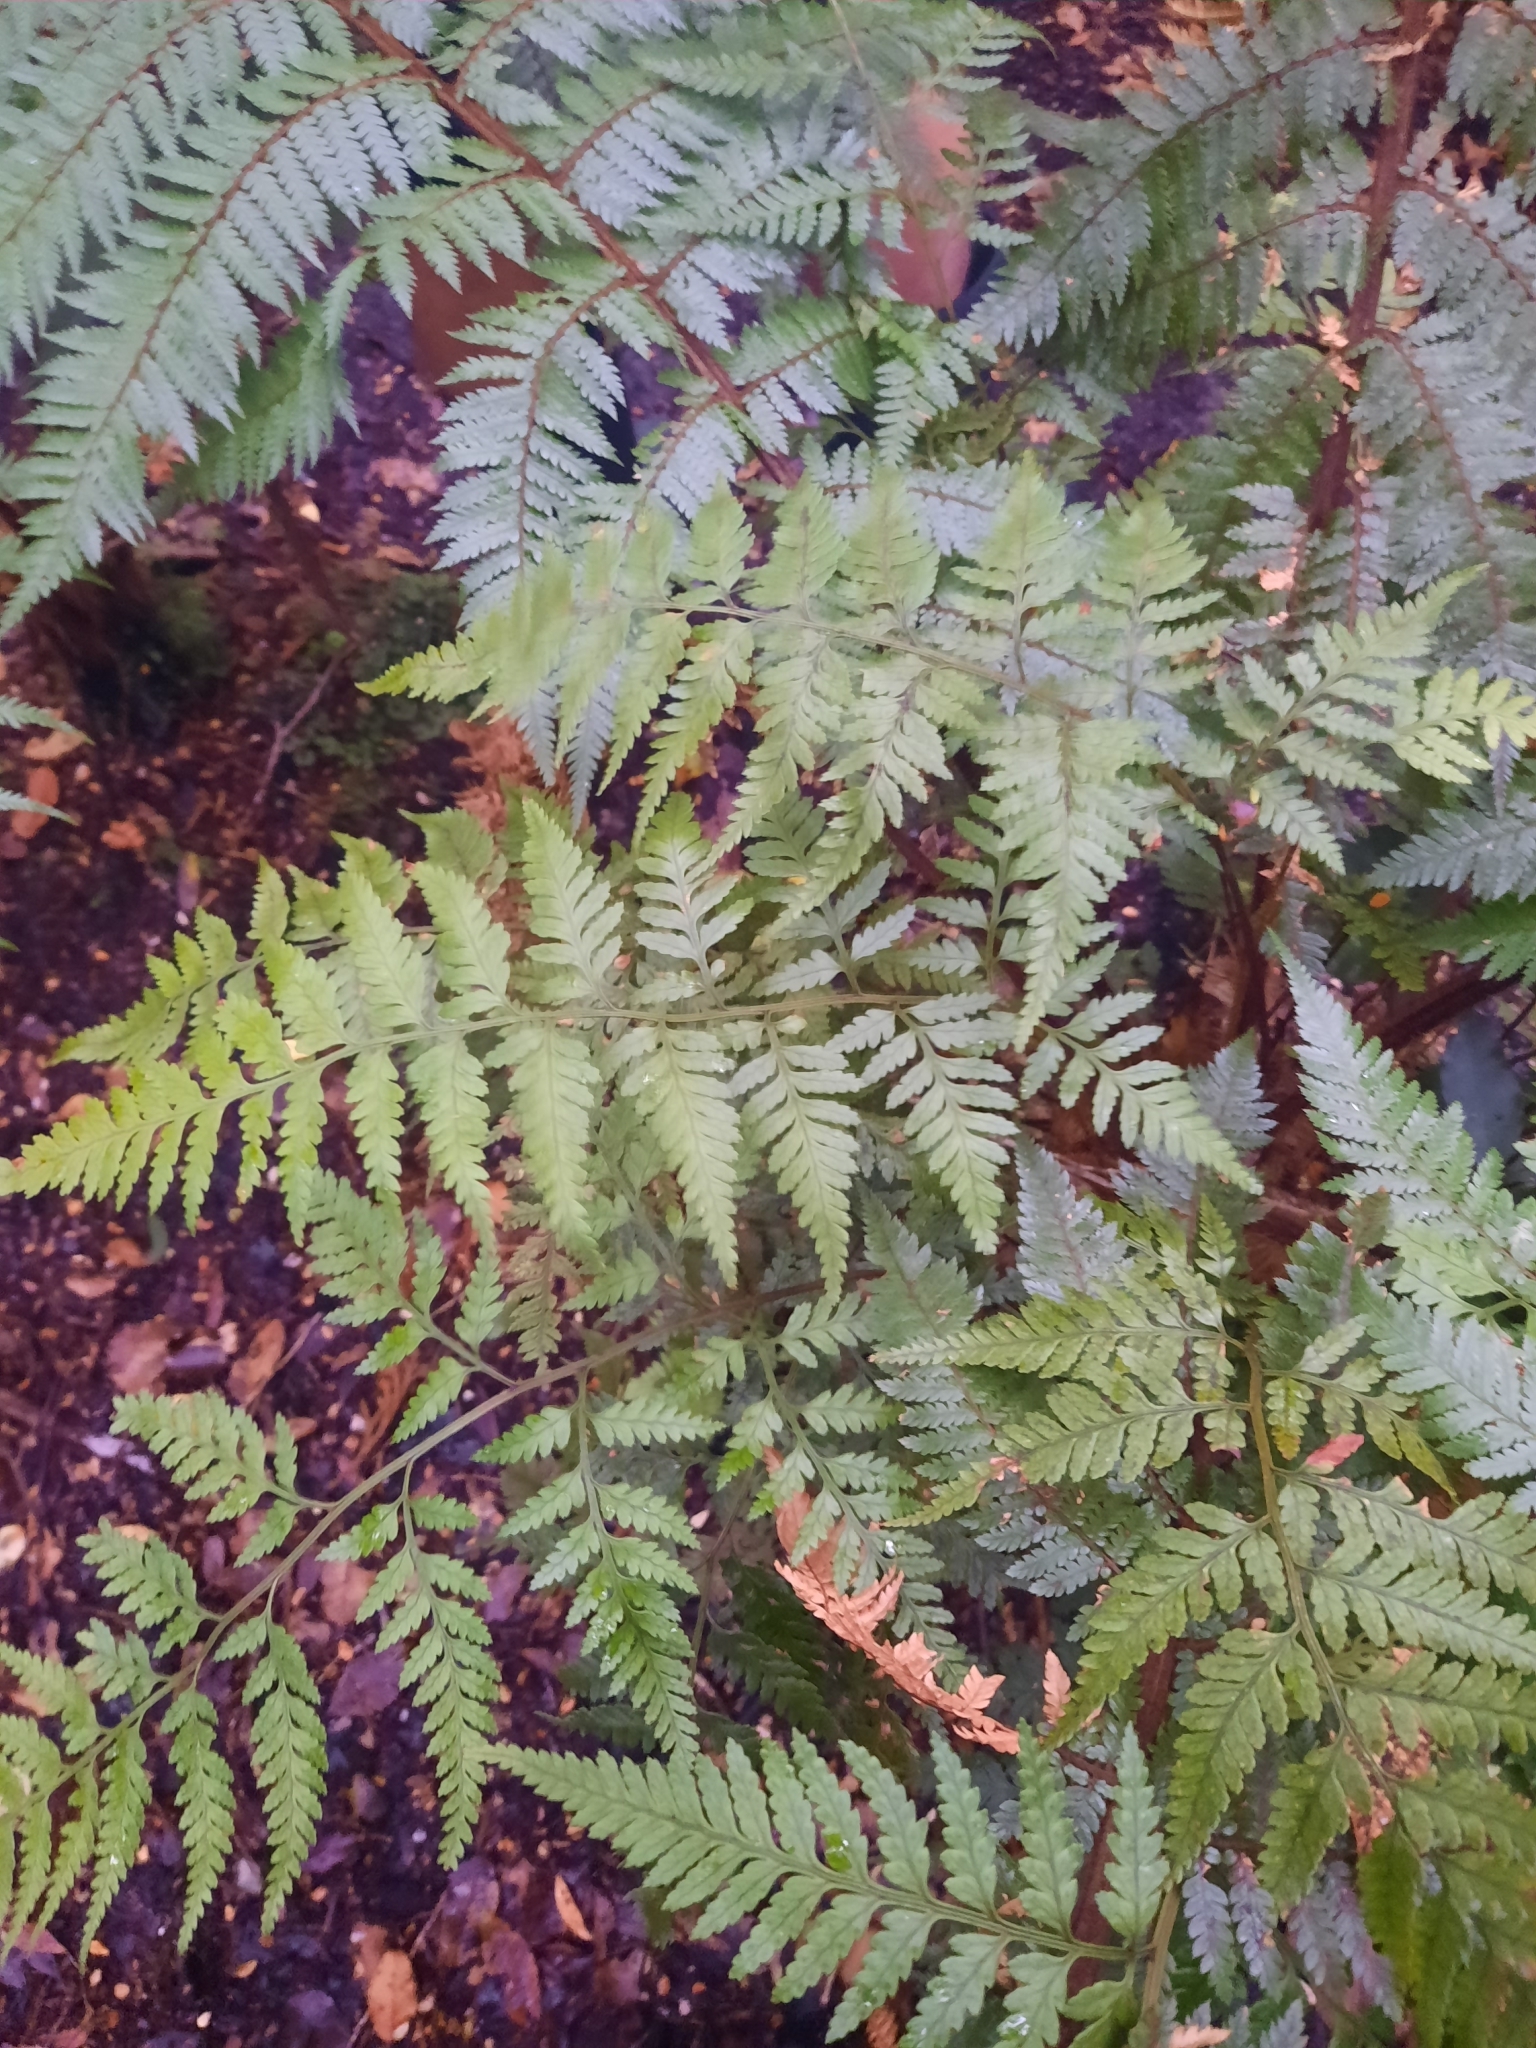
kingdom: Plantae
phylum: Tracheophyta
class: Polypodiopsida
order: Polypodiales
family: Dryopteridaceae
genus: Rumohra
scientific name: Rumohra adiantiformis
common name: Leather fern
